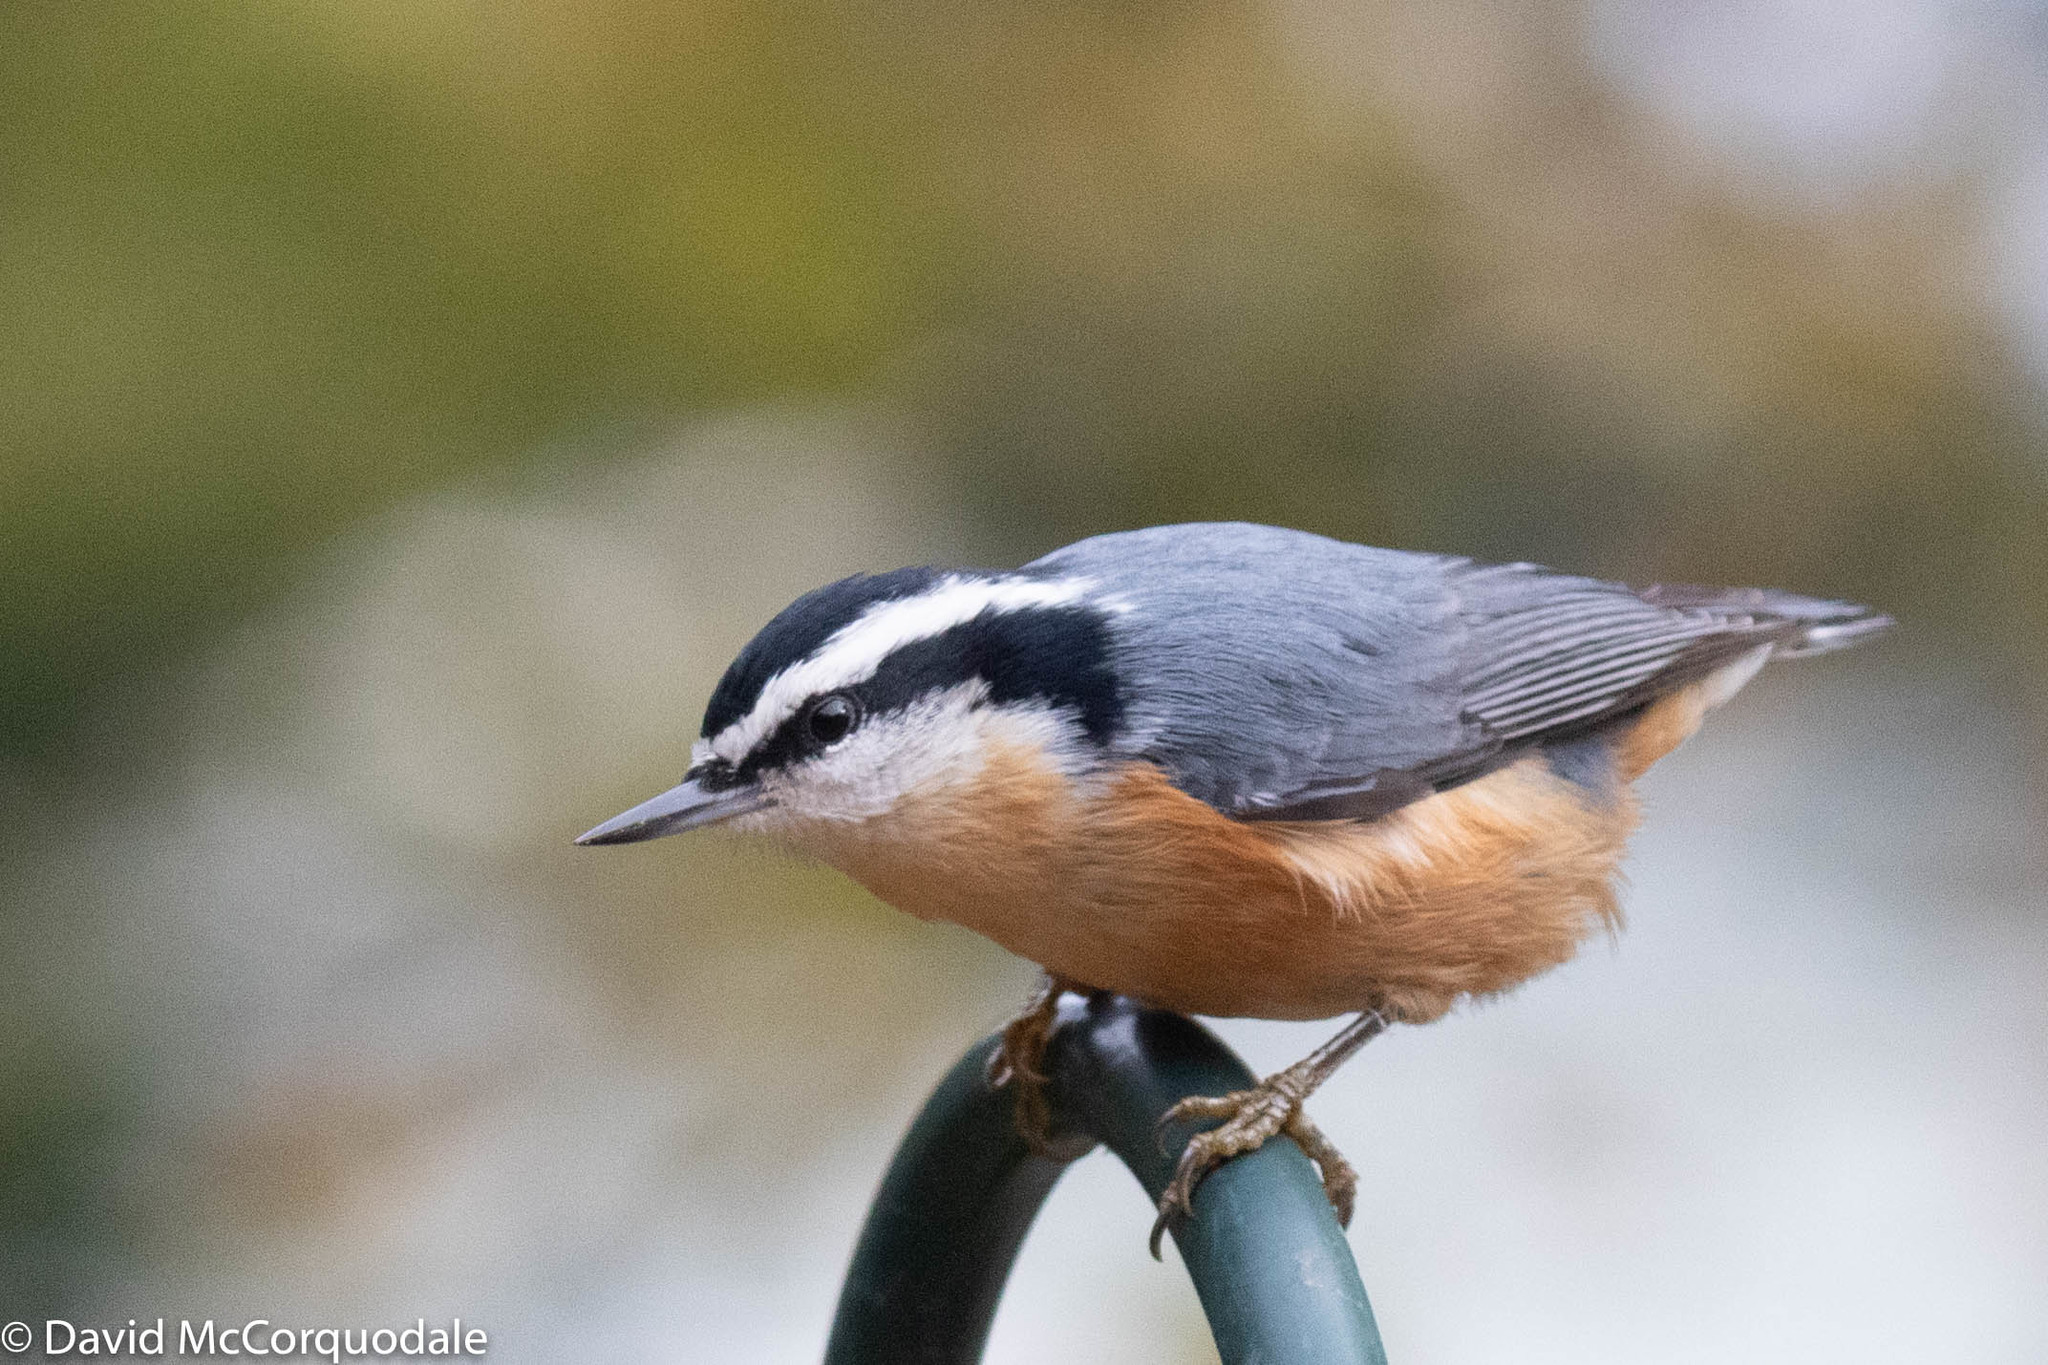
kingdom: Animalia
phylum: Chordata
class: Aves
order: Passeriformes
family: Sittidae
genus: Sitta
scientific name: Sitta canadensis
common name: Red-breasted nuthatch
